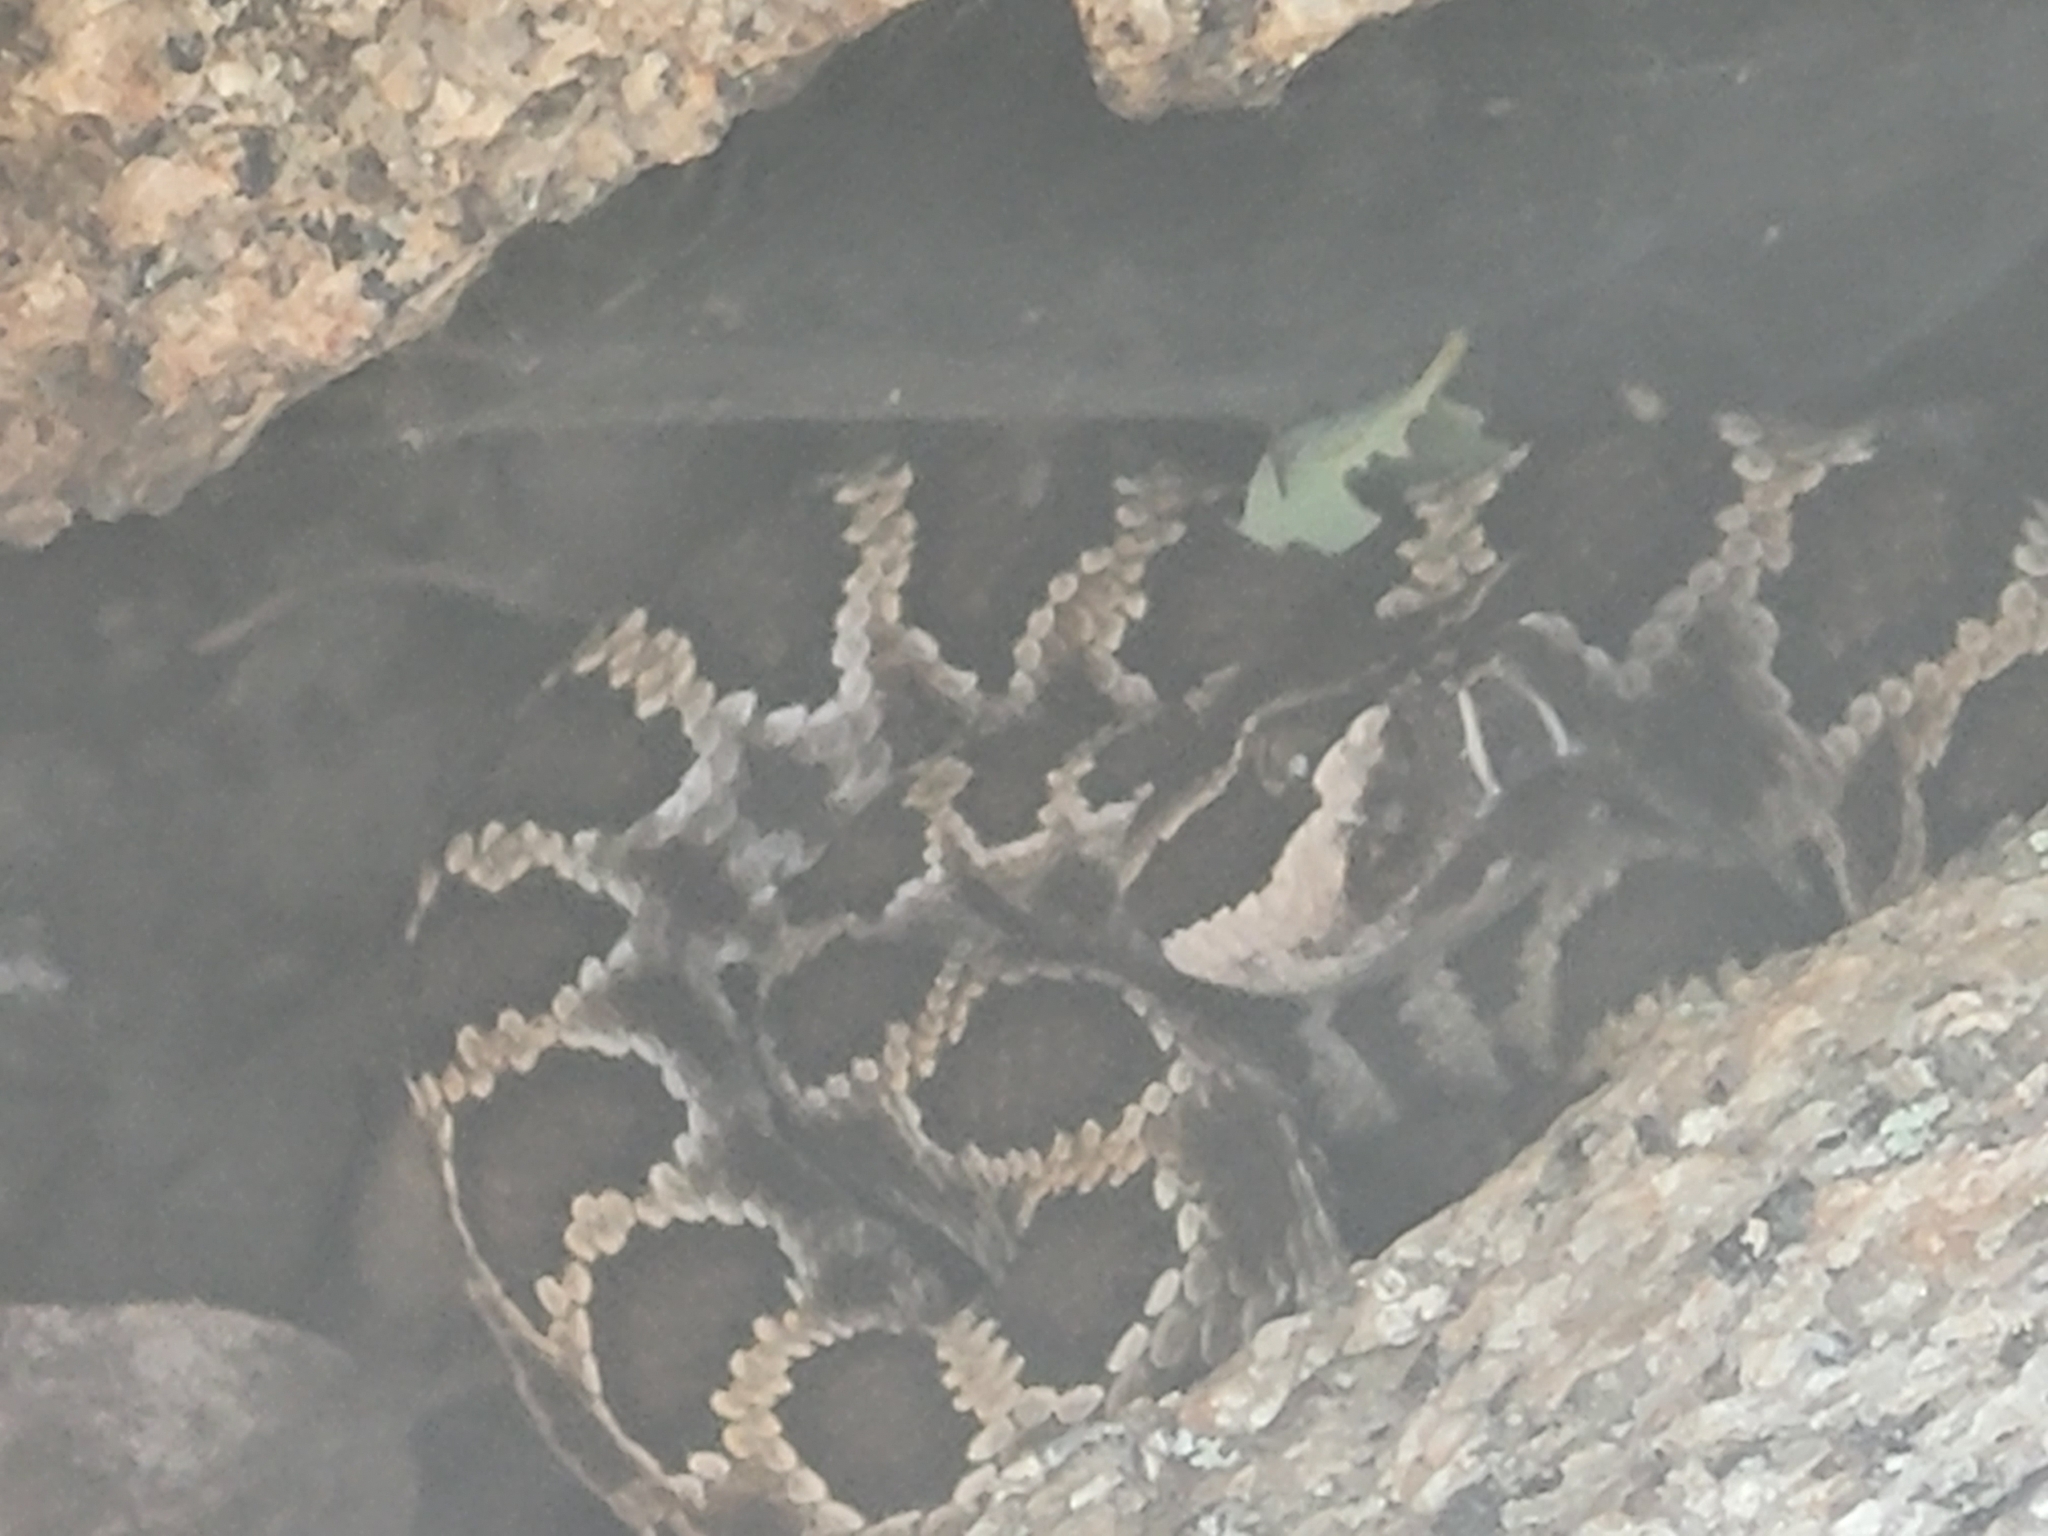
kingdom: Animalia
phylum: Chordata
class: Squamata
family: Viperidae
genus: Crotalus
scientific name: Crotalus oreganus
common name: Abyssus
